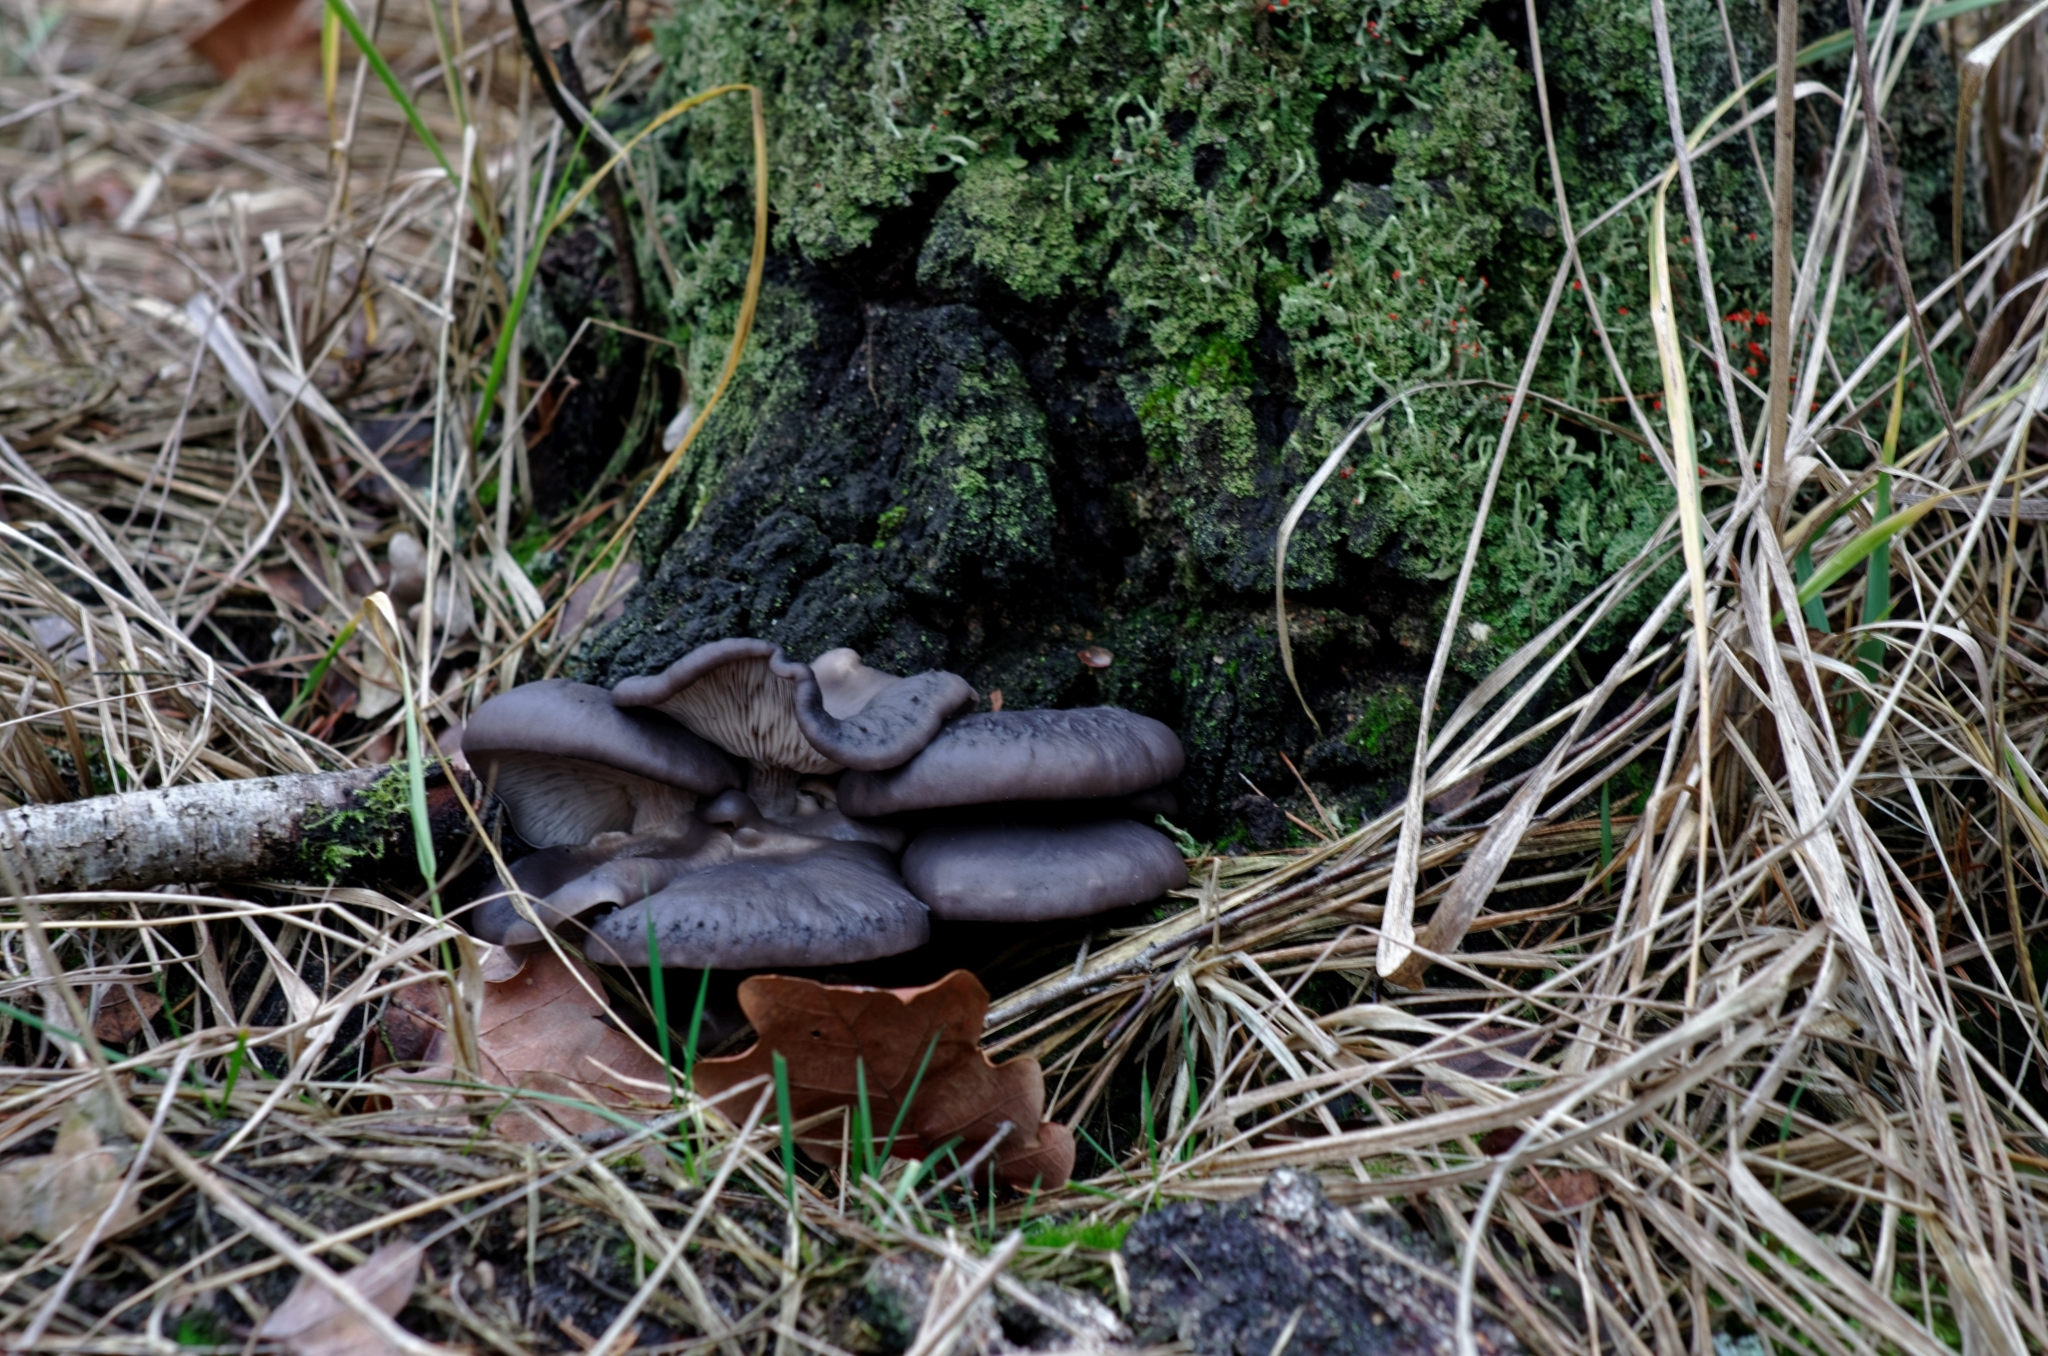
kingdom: Fungi
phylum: Basidiomycota
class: Agaricomycetes
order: Agaricales
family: Pleurotaceae
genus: Pleurotus
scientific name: Pleurotus ostreatus
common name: Oyster mushroom
